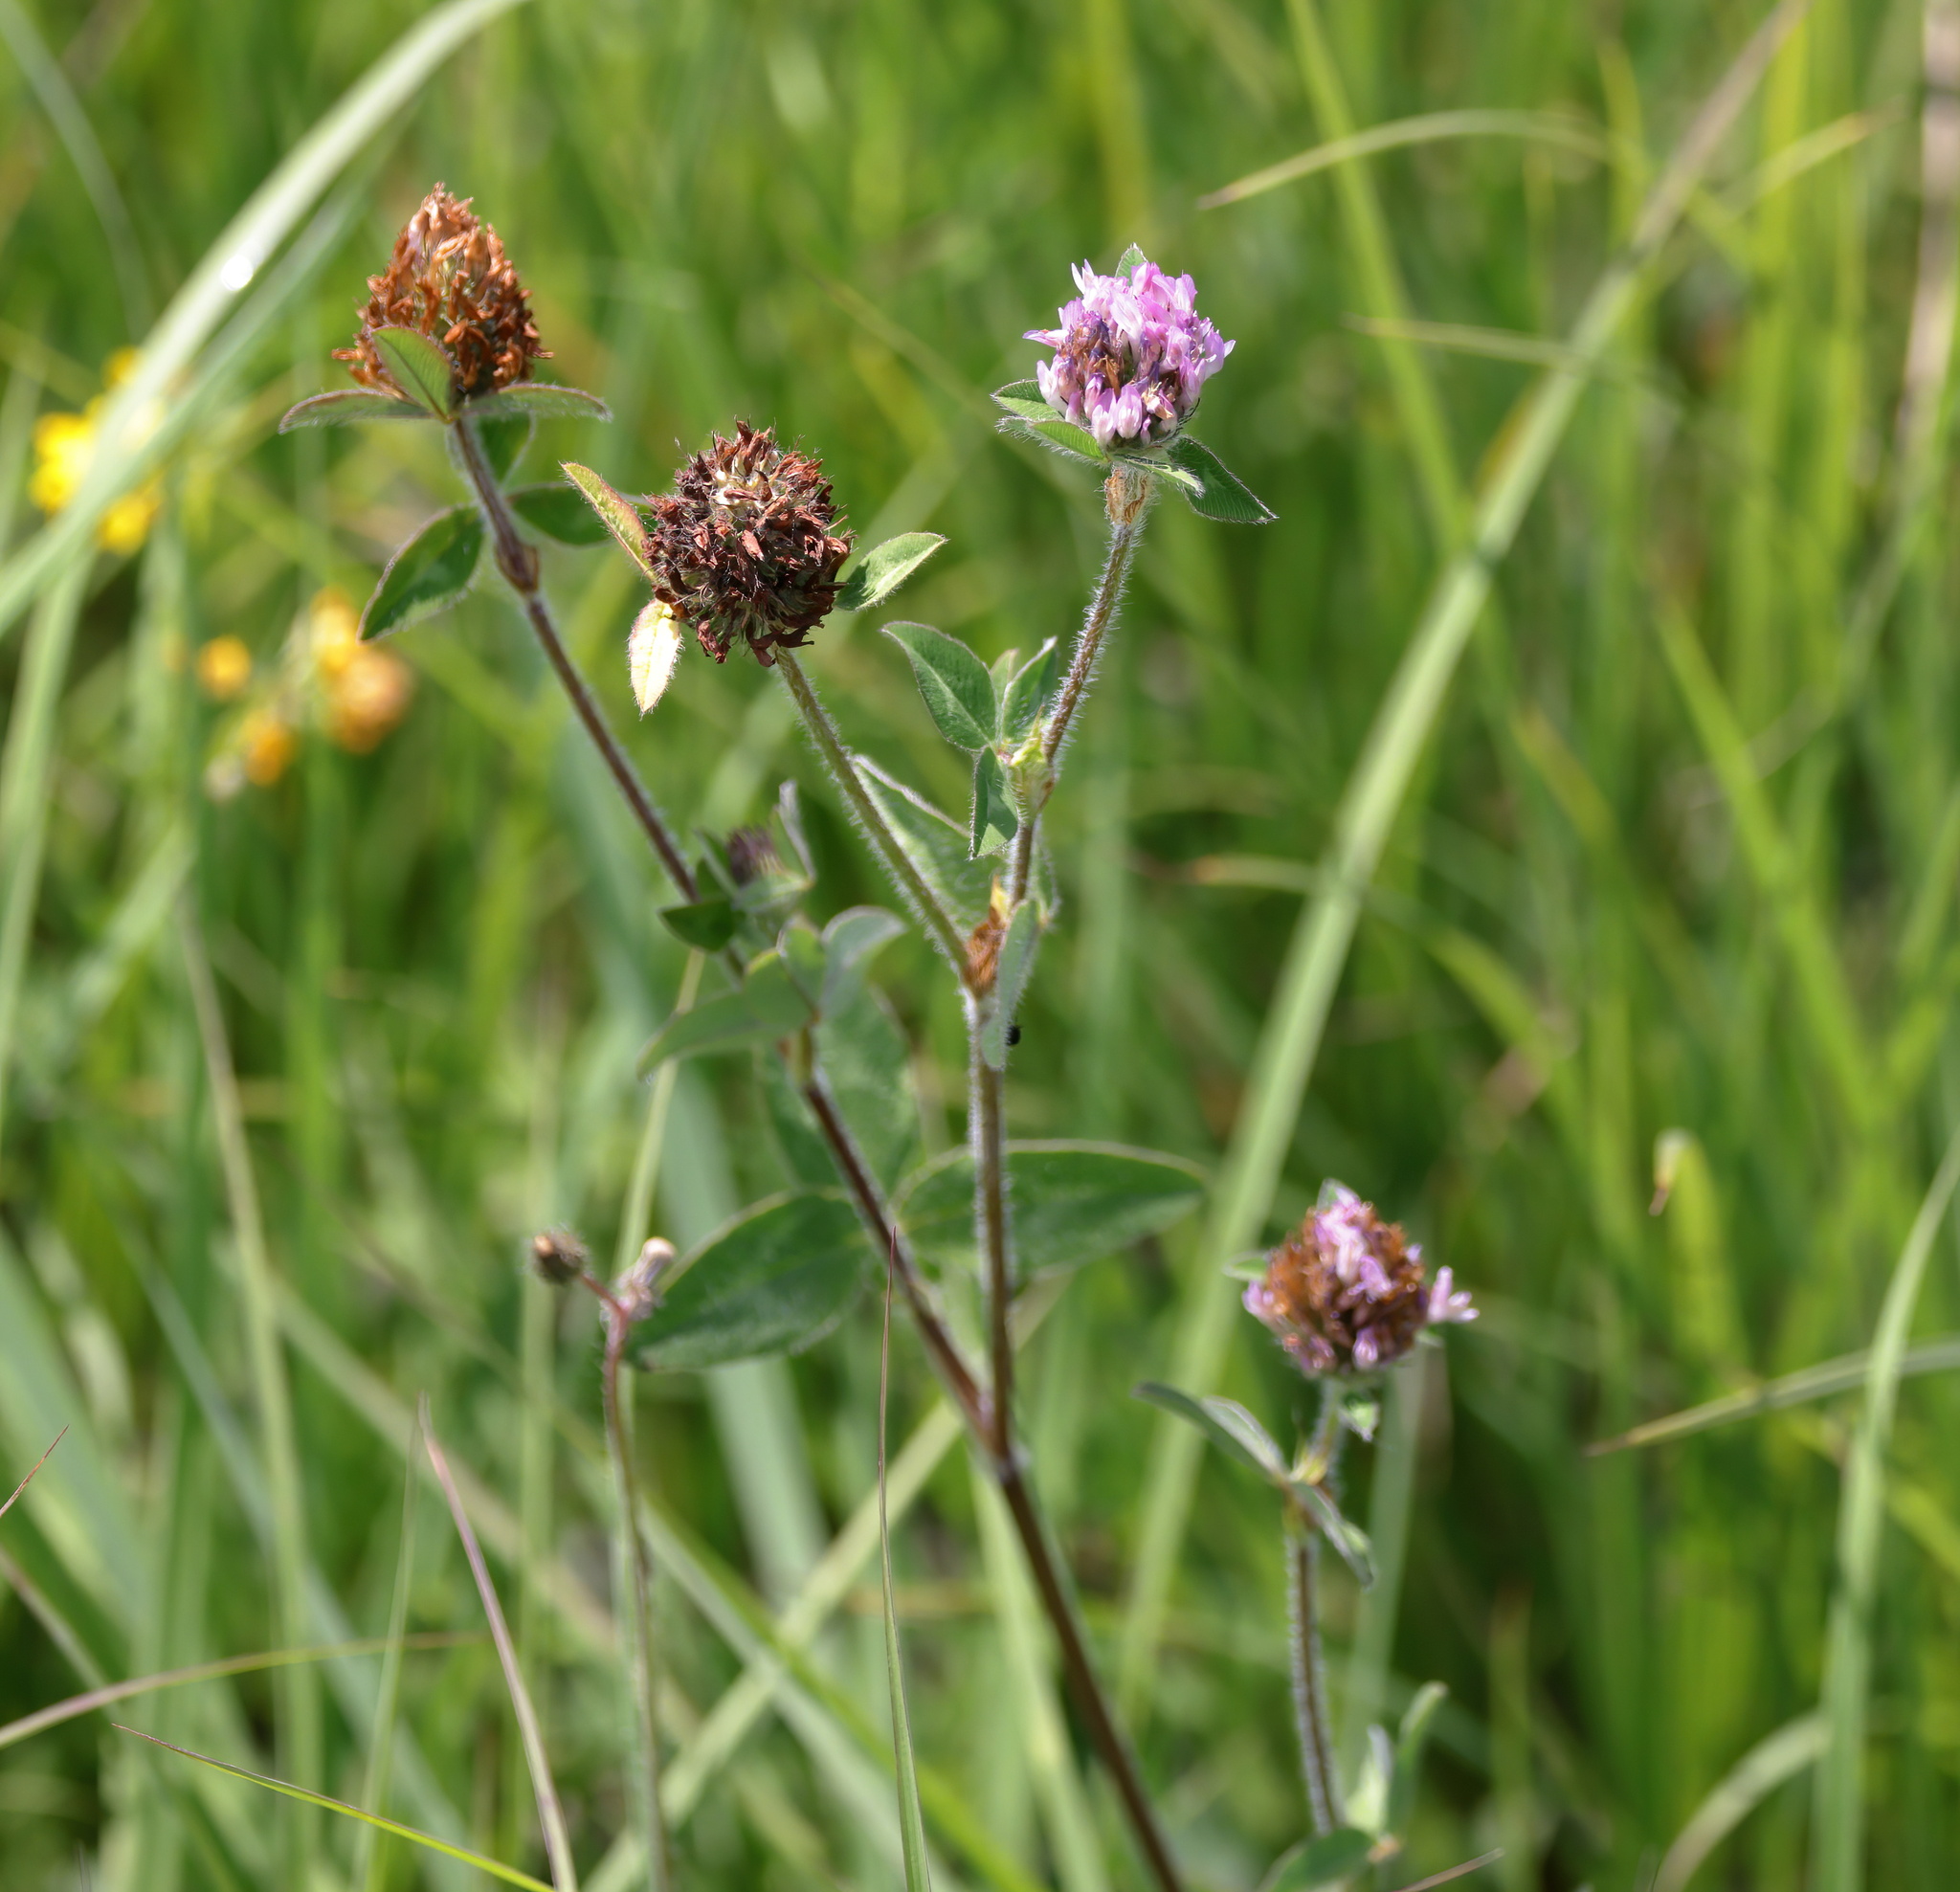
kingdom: Plantae
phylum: Tracheophyta
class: Magnoliopsida
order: Fabales
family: Fabaceae
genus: Trifolium
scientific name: Trifolium pratense
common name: Red clover
